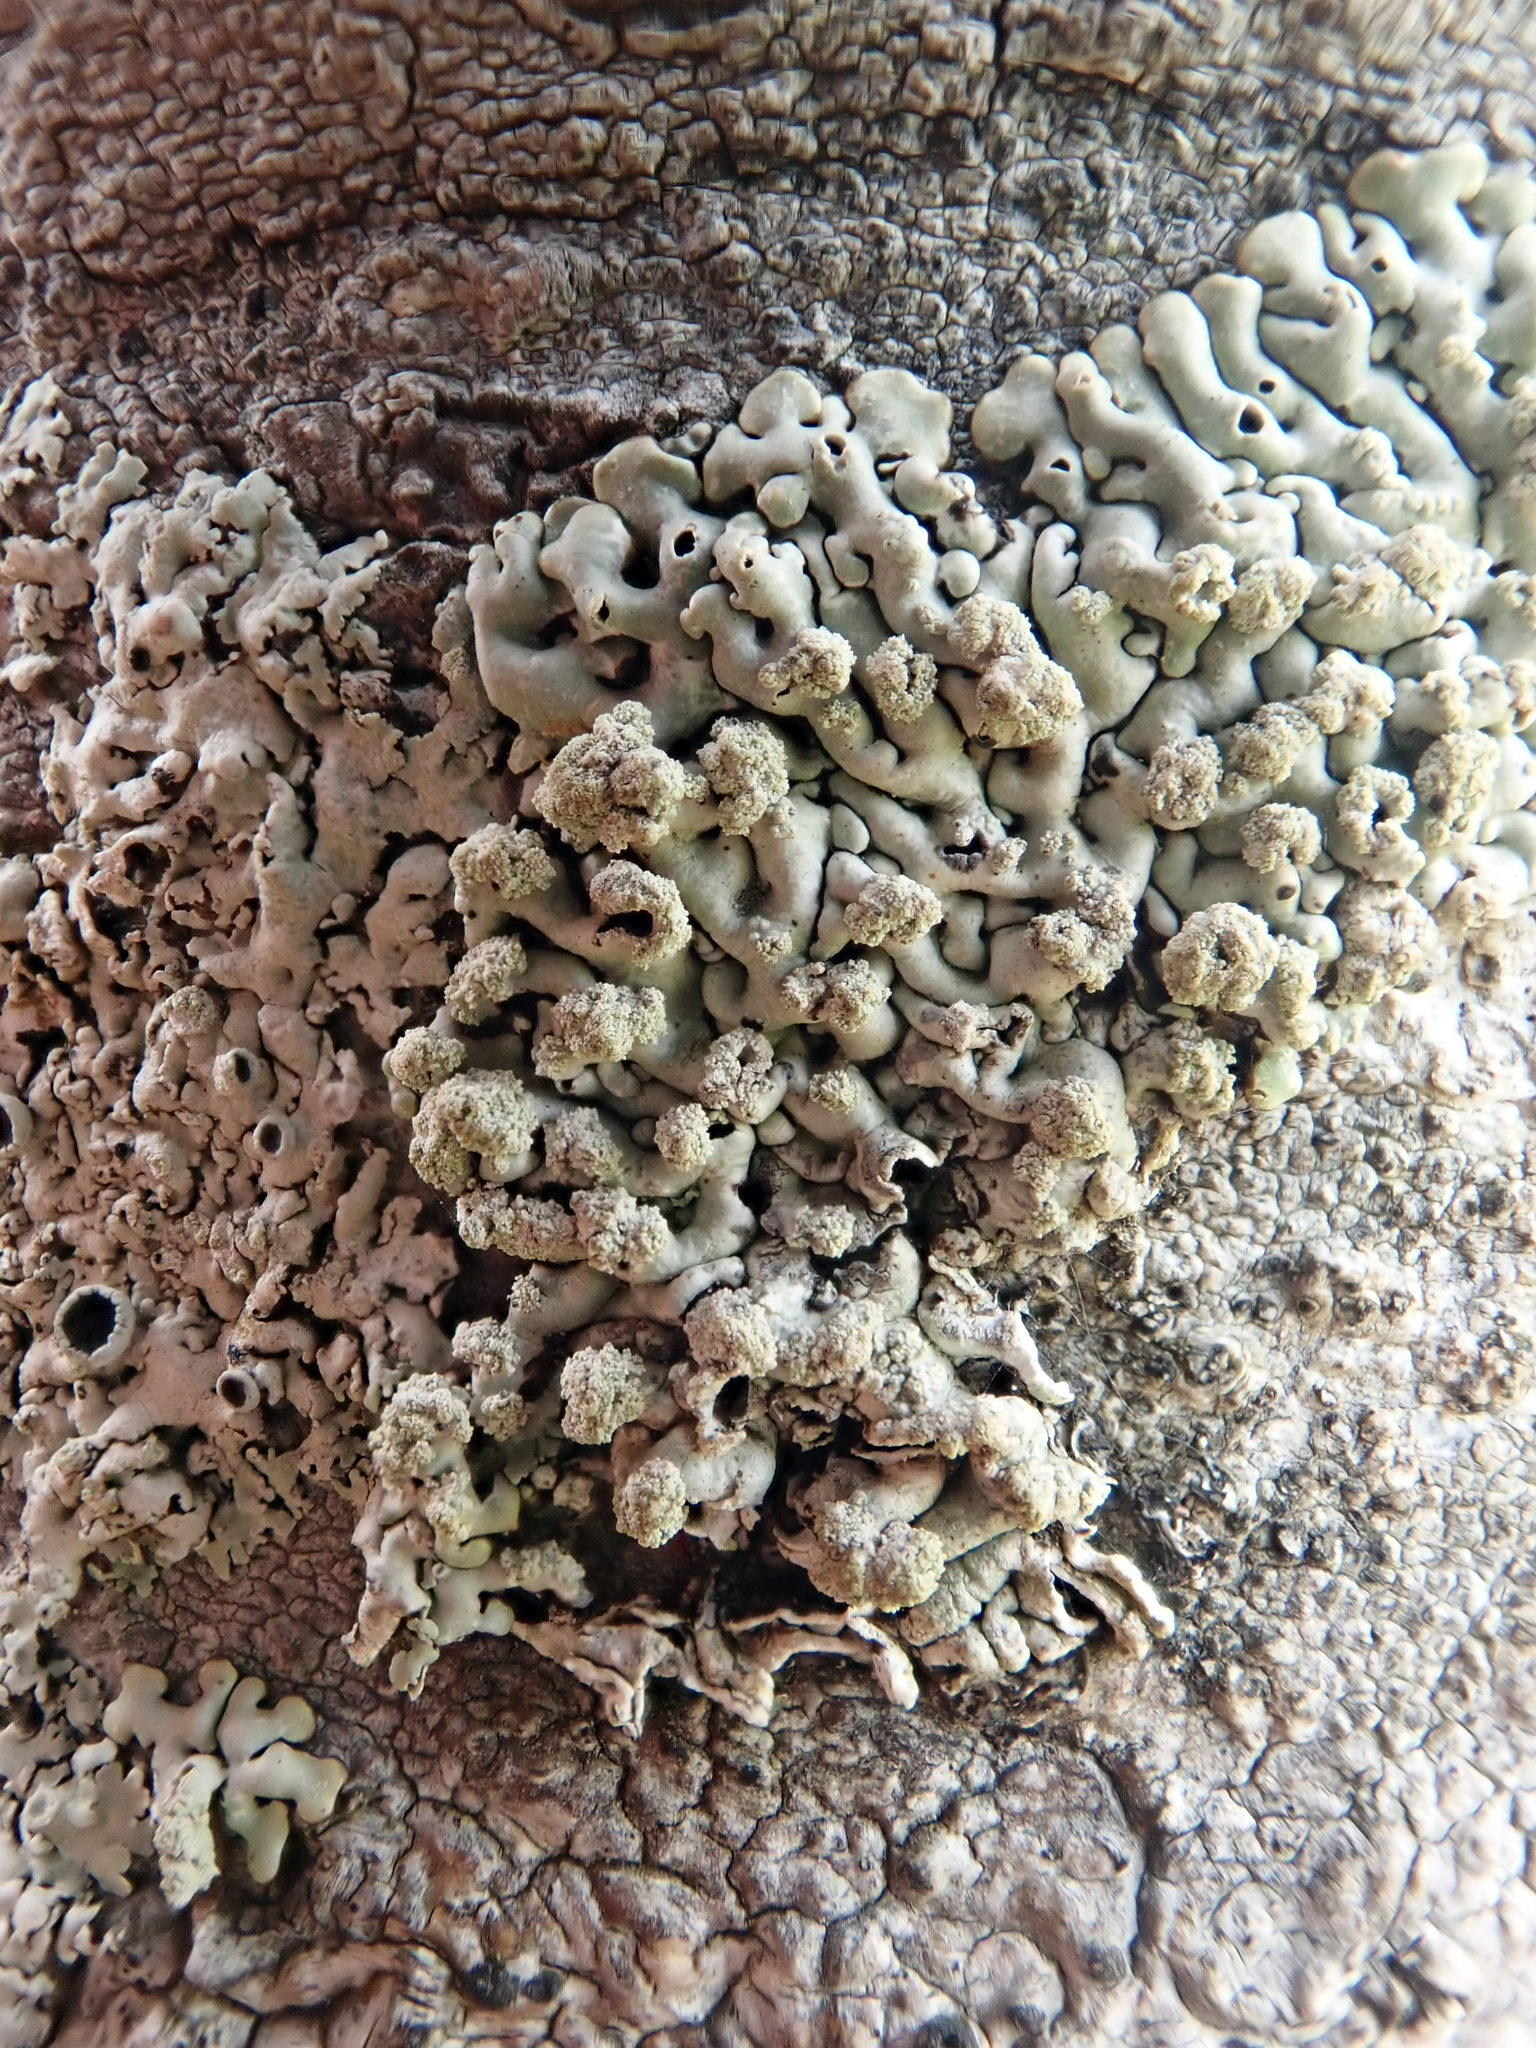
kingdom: Fungi
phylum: Ascomycota
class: Lecanoromycetes
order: Lecanorales
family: Parmeliaceae
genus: Menegazzia
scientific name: Menegazzia neozelandica
